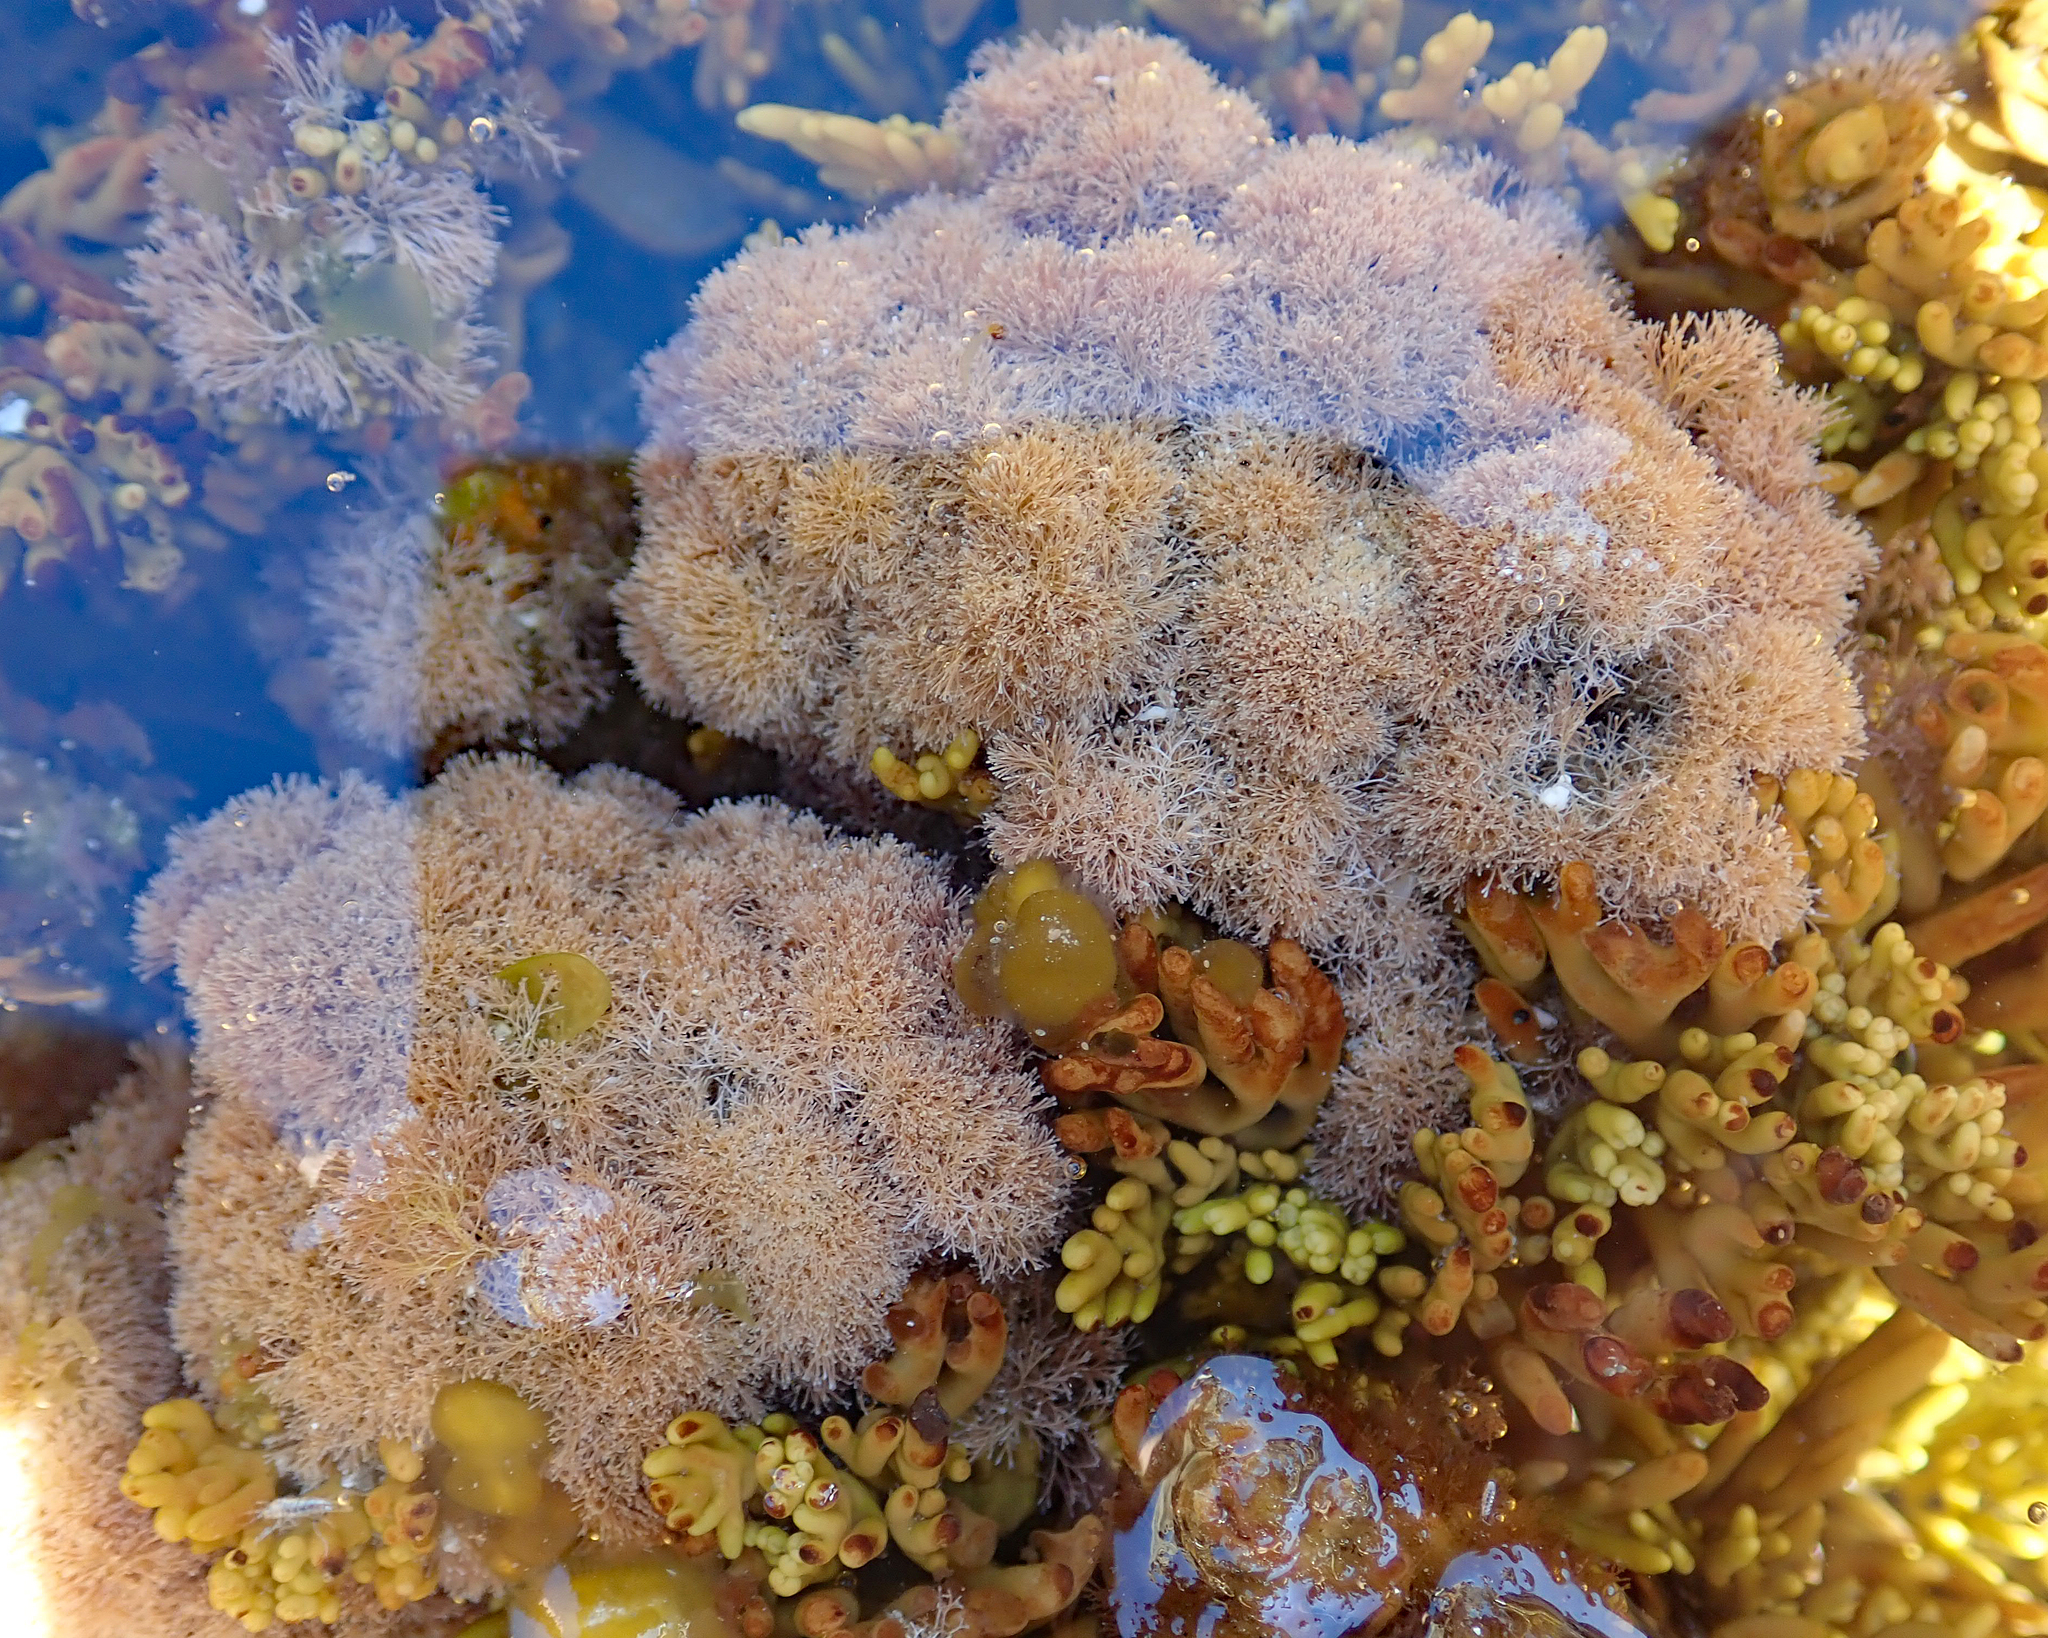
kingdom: Plantae
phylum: Rhodophyta
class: Florideophyceae
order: Corallinales
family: Corallinaceae
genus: Jania
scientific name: Jania sphaeroramosa
